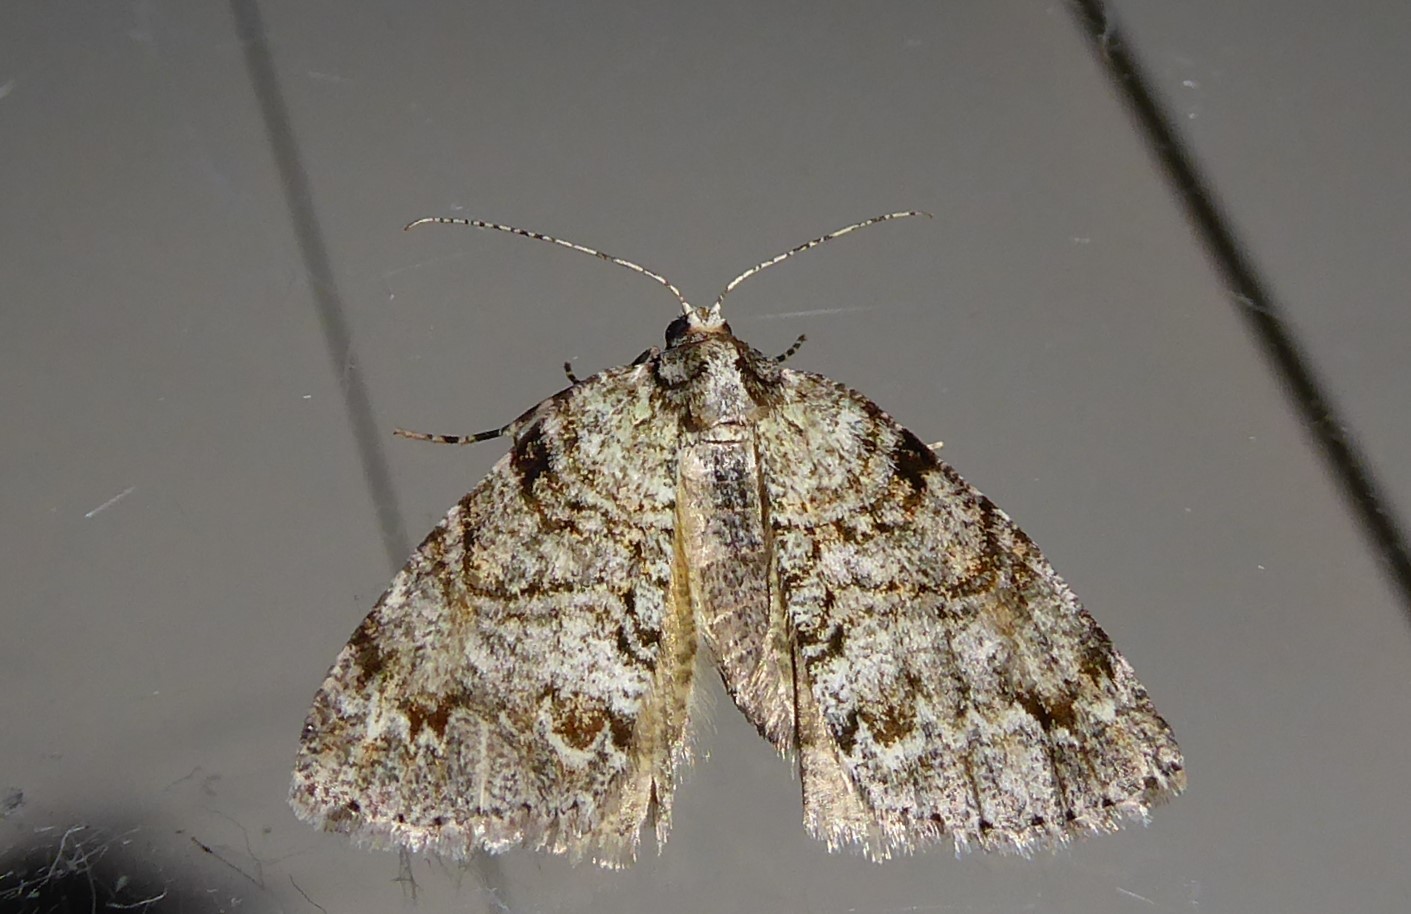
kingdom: Animalia
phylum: Arthropoda
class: Insecta
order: Lepidoptera
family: Geometridae
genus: Pseudocoremia
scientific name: Pseudocoremia suavis
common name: Common forest looper
